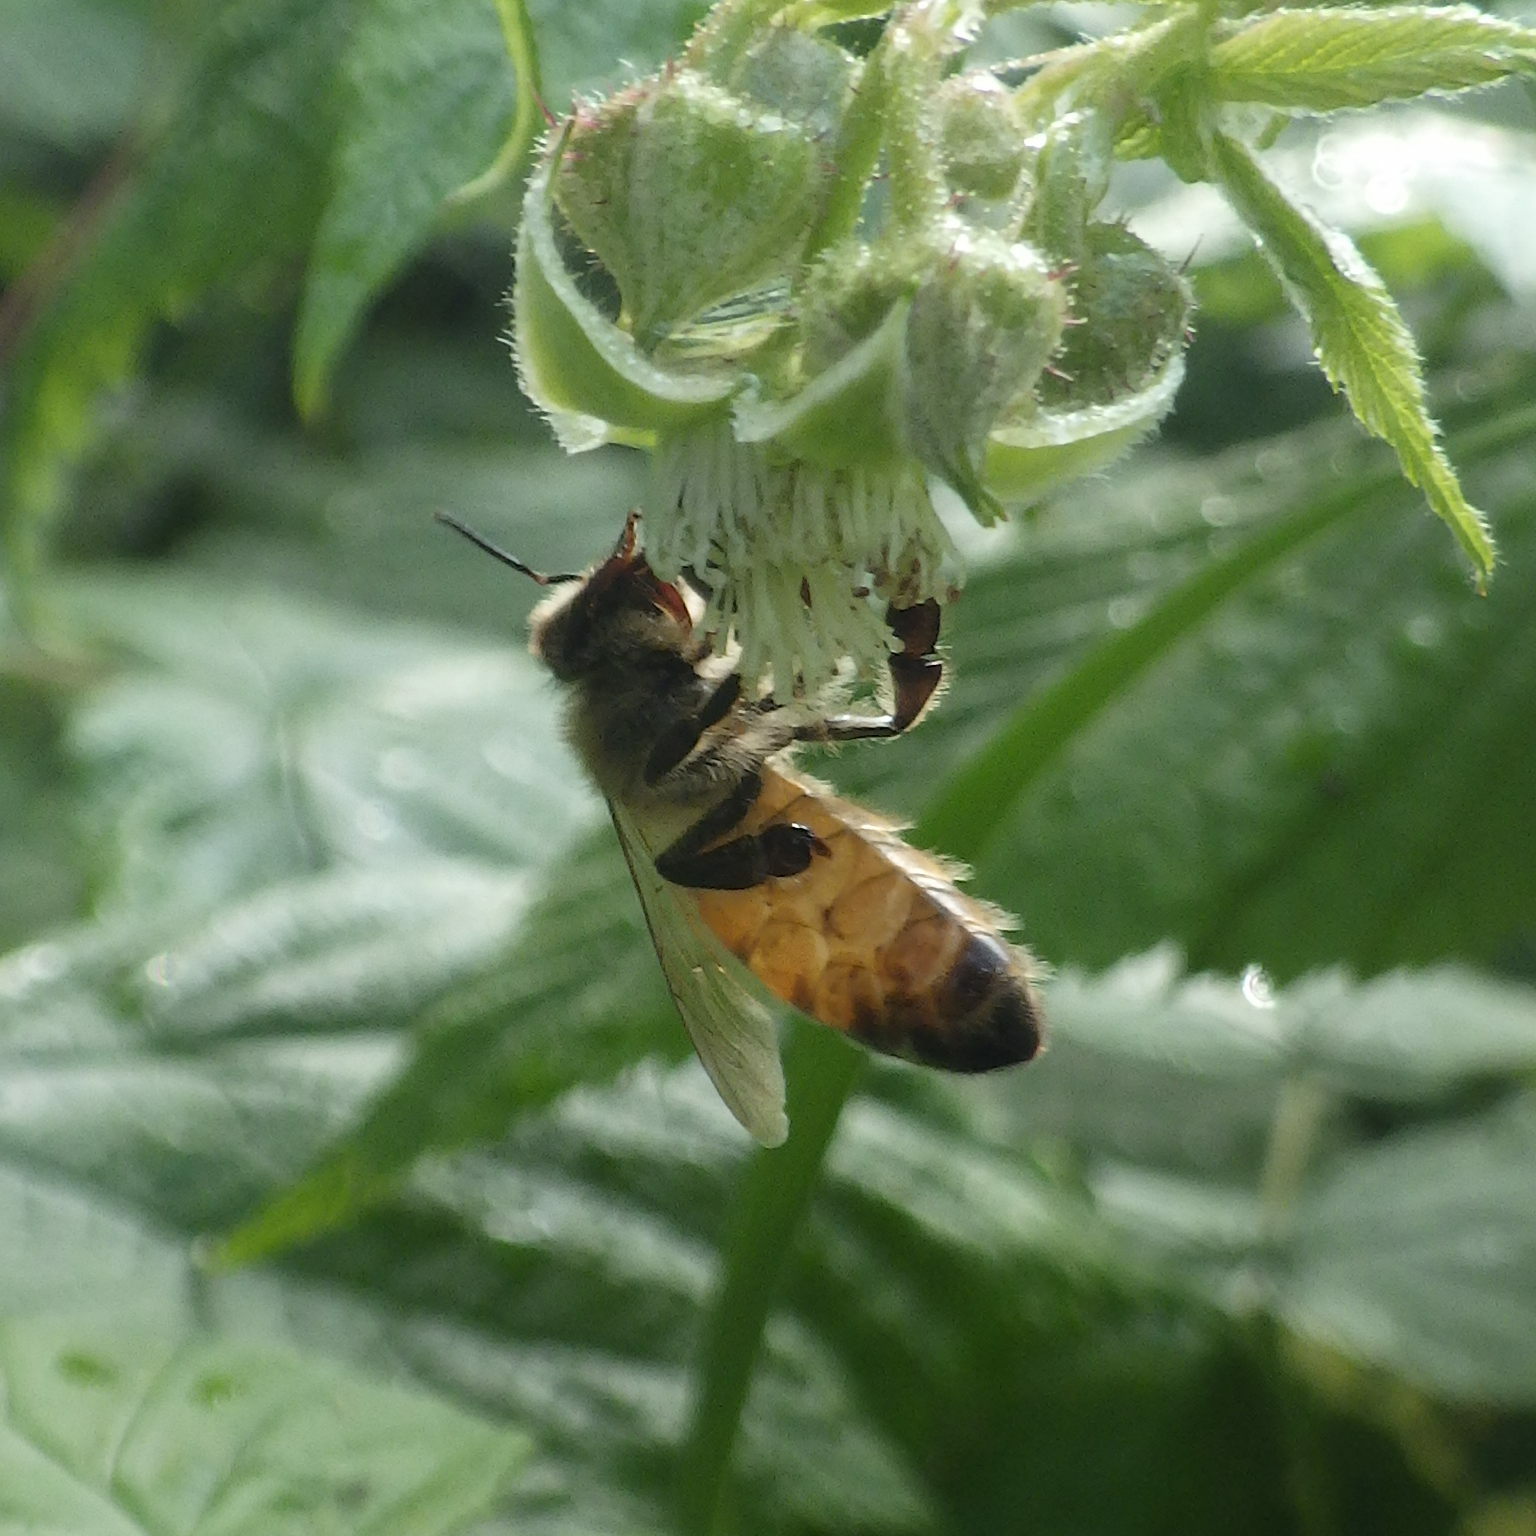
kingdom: Animalia
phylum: Arthropoda
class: Insecta
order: Hymenoptera
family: Apidae
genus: Apis
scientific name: Apis mellifera
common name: Honey bee
